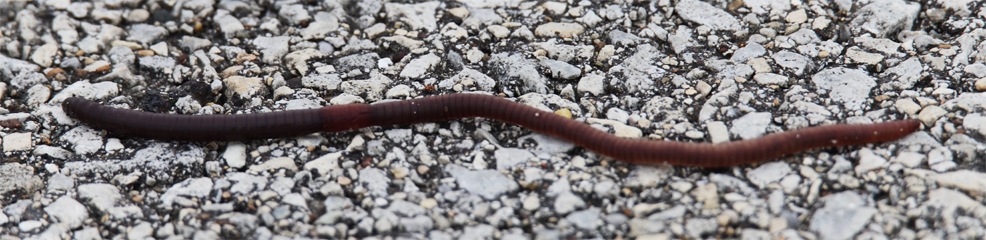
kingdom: Animalia
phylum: Annelida
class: Clitellata
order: Crassiclitellata
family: Lumbricidae
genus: Lumbricus
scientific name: Lumbricus terrestris
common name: Common earthworm
